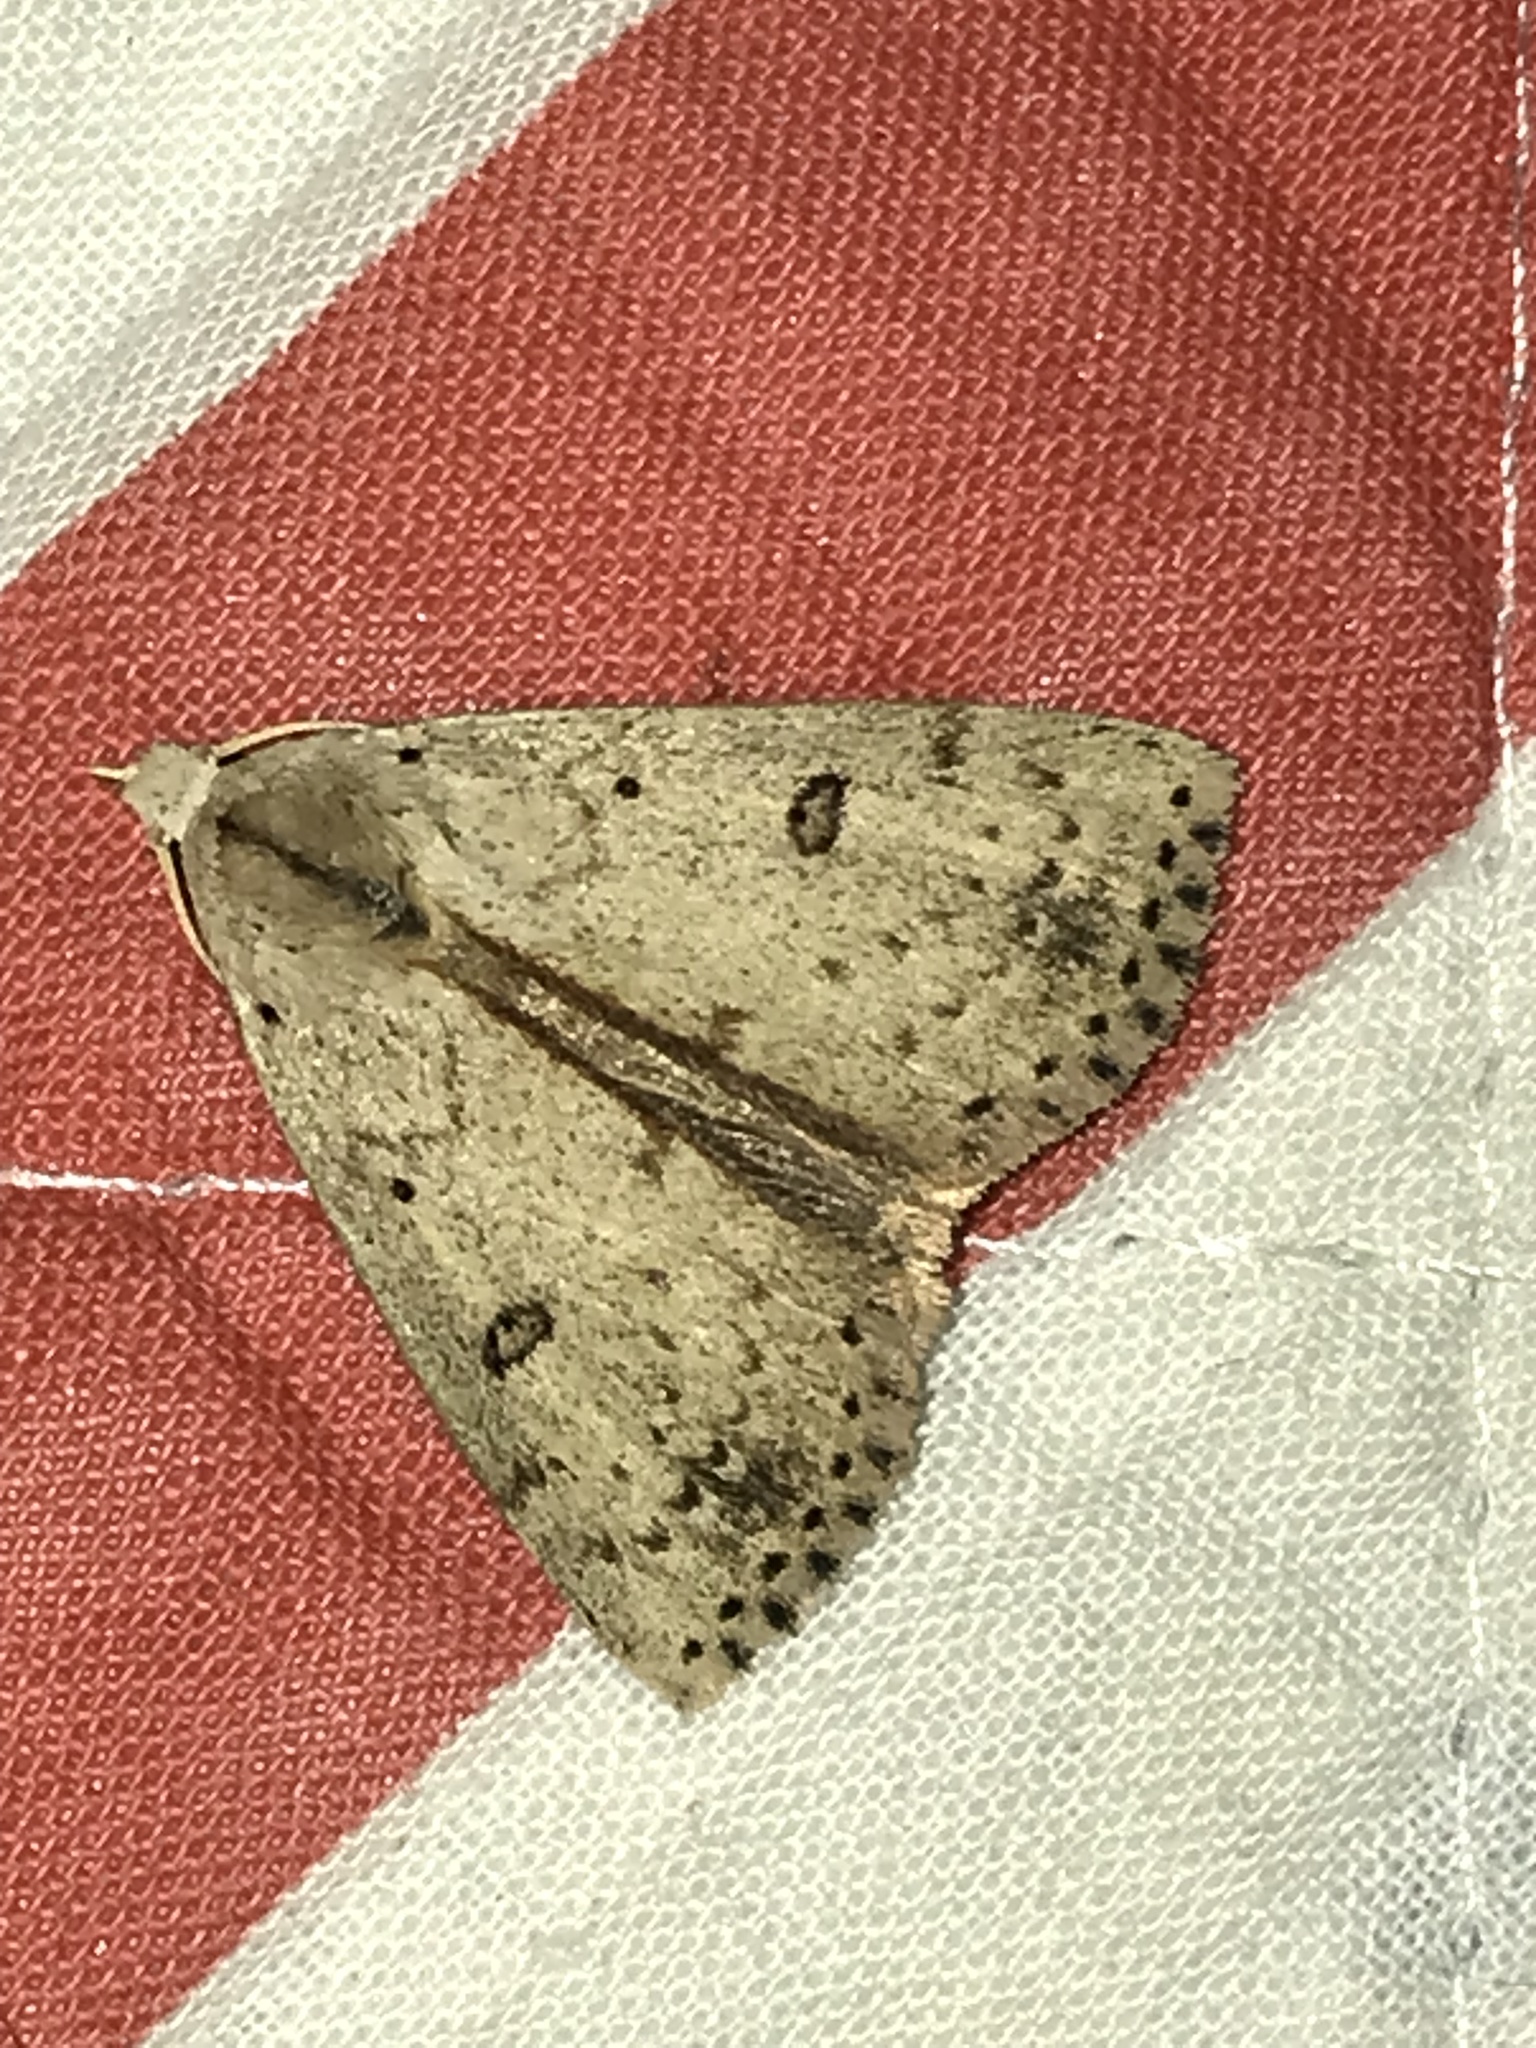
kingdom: Animalia
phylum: Arthropoda
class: Insecta
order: Lepidoptera
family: Erebidae
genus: Scolecocampa
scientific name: Scolecocampa liburna
